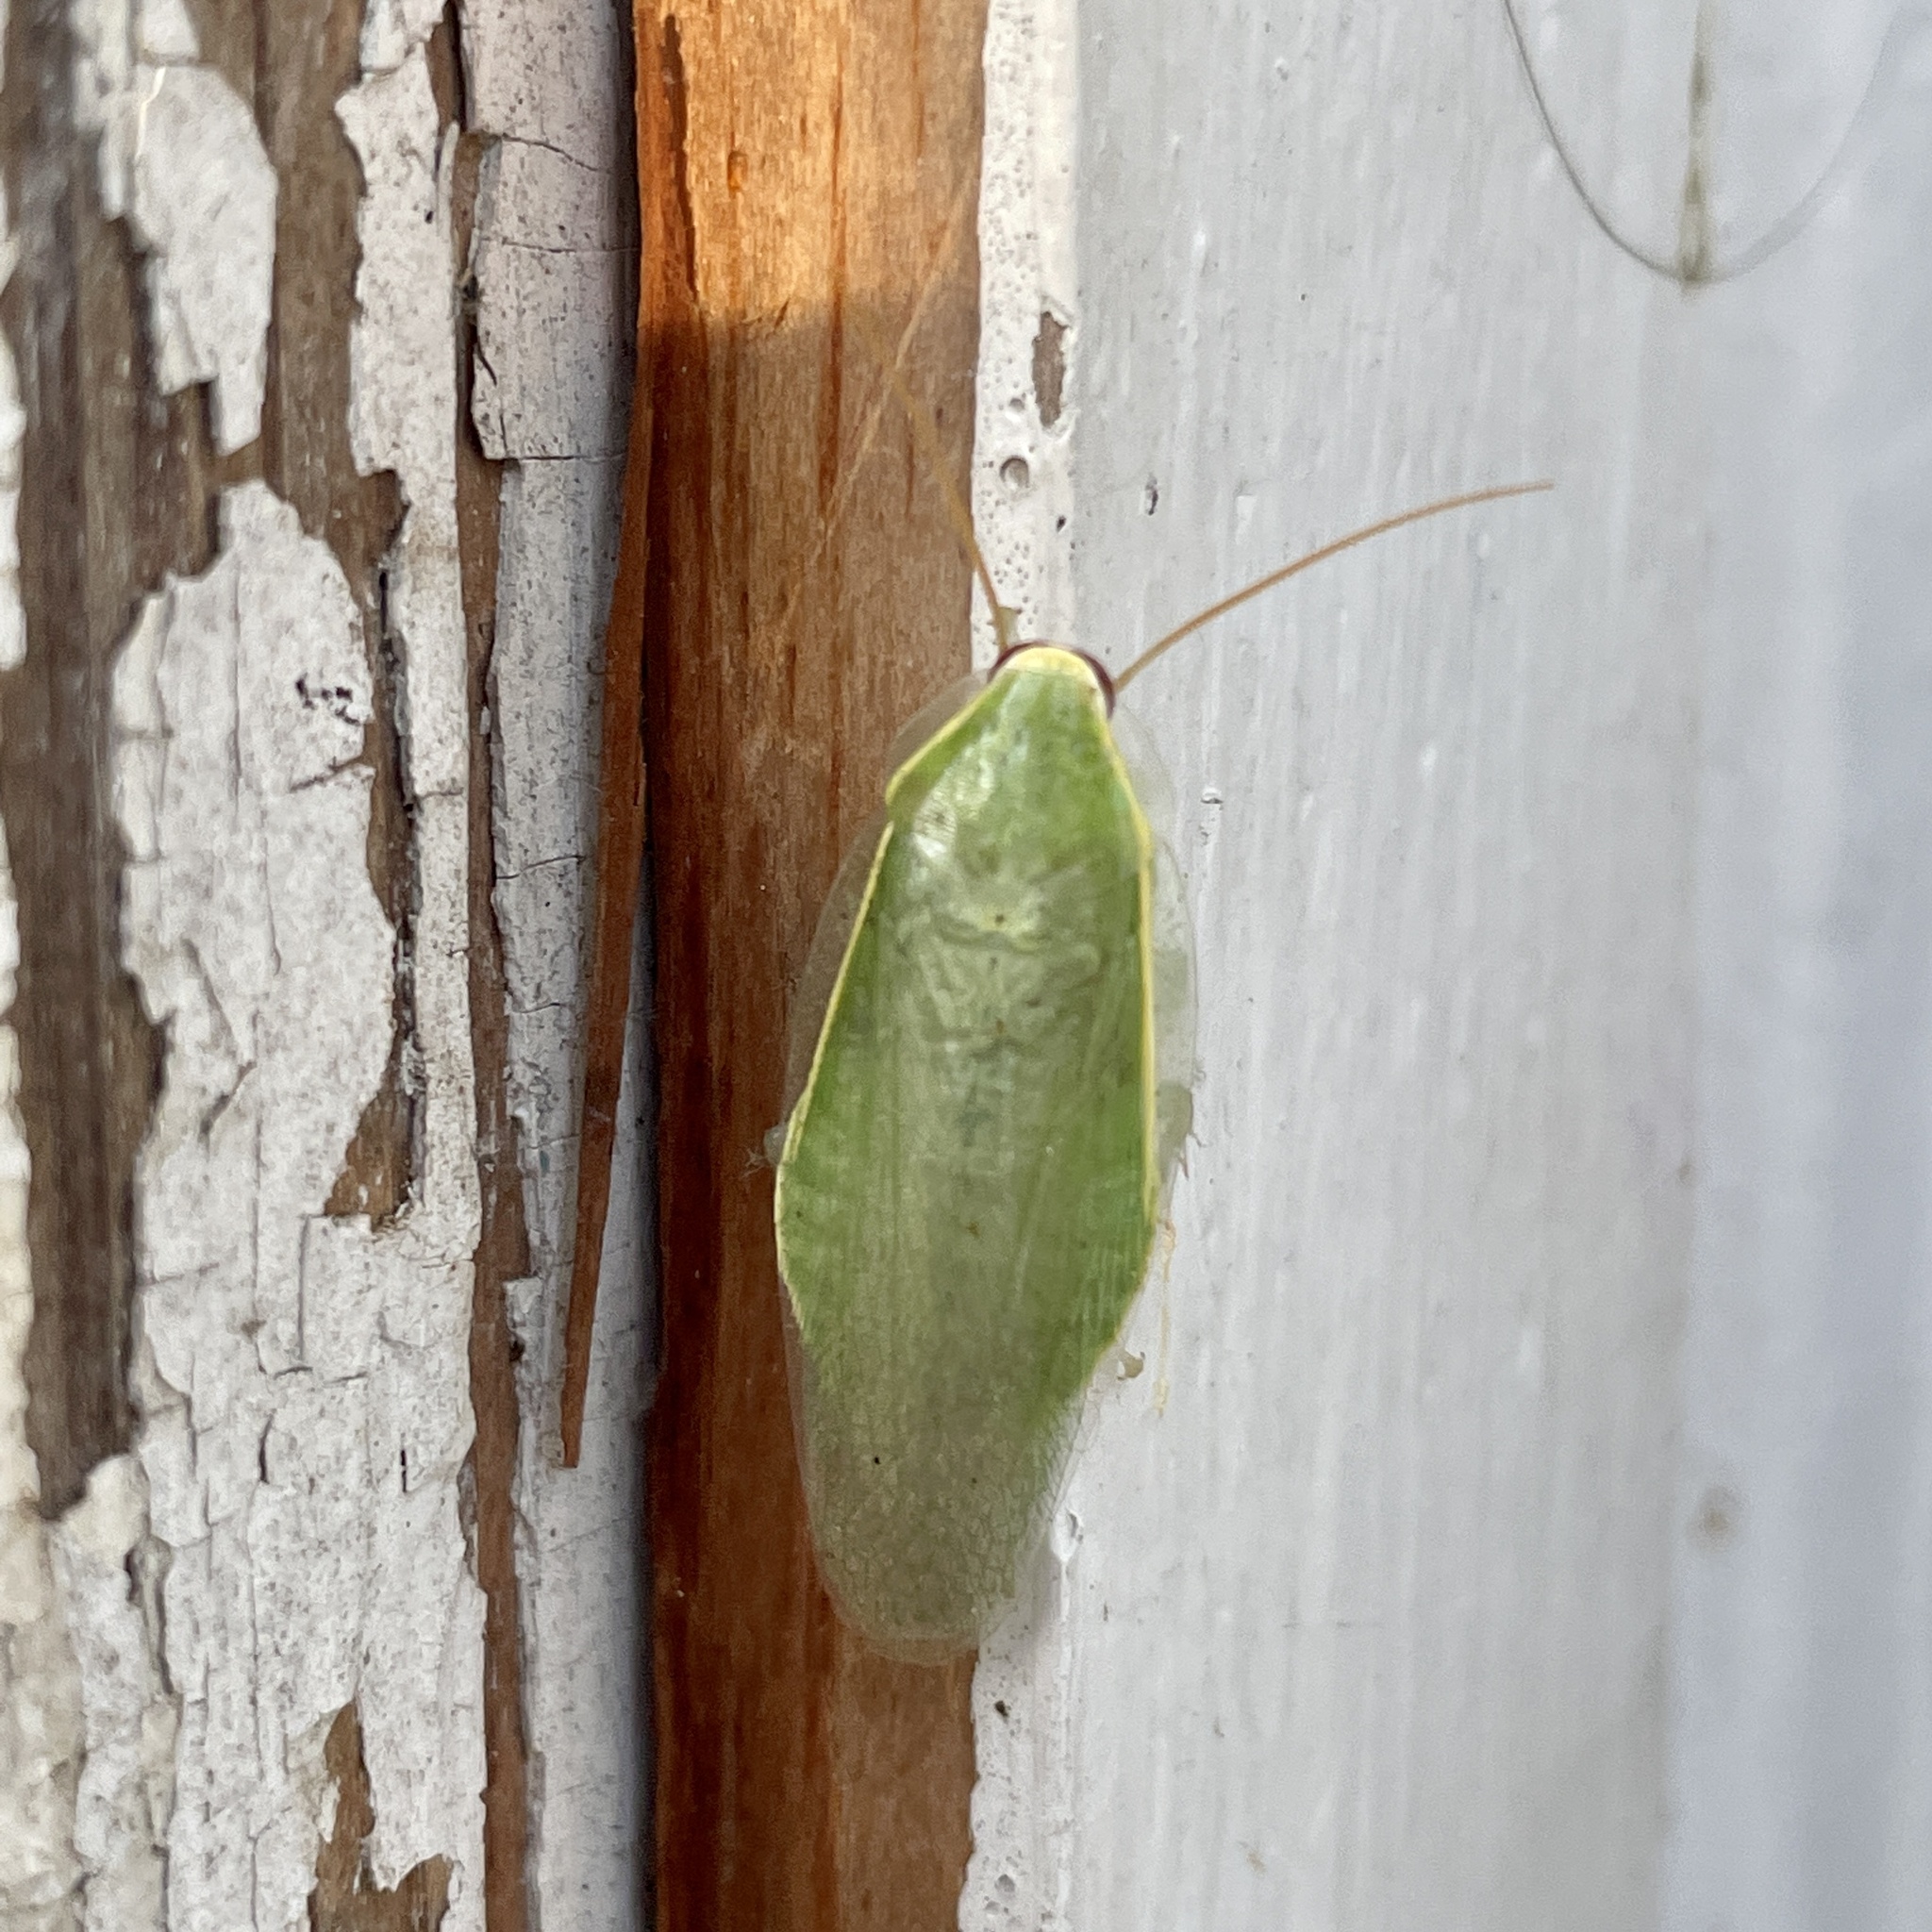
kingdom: Animalia
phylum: Arthropoda
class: Insecta
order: Blattodea
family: Blaberidae
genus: Panchlora
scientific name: Panchlora nivea
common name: Cuban cockroach
